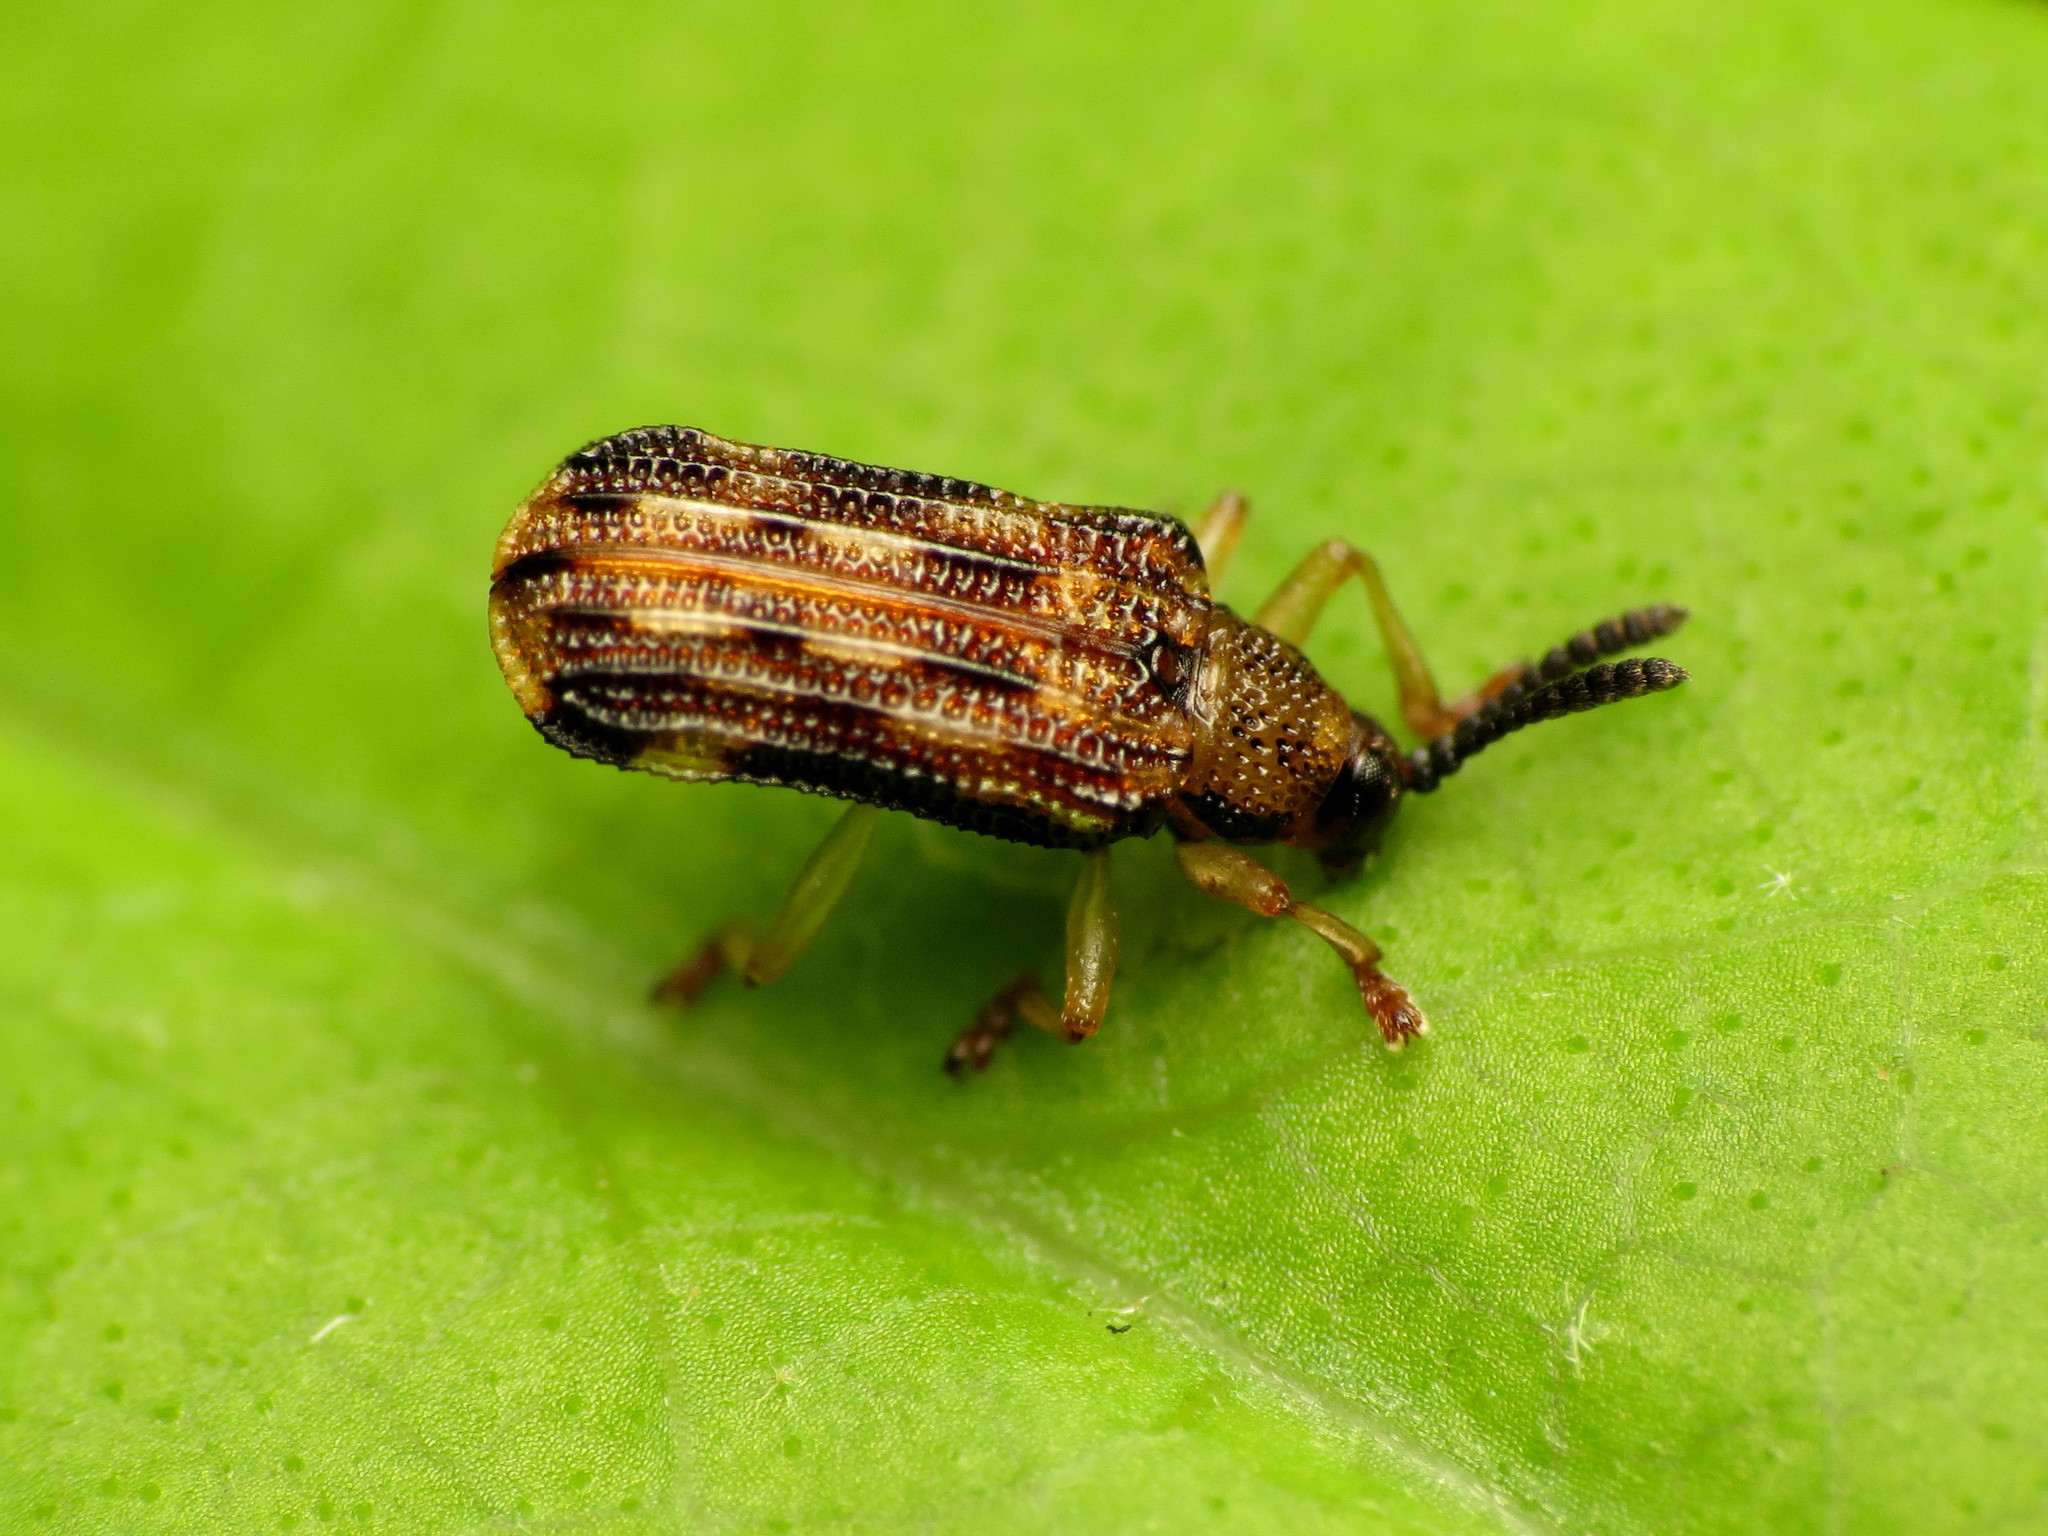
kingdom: Animalia
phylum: Arthropoda
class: Insecta
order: Coleoptera
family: Chrysomelidae
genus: Sumitrosis
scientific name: Sumitrosis inaequalis
